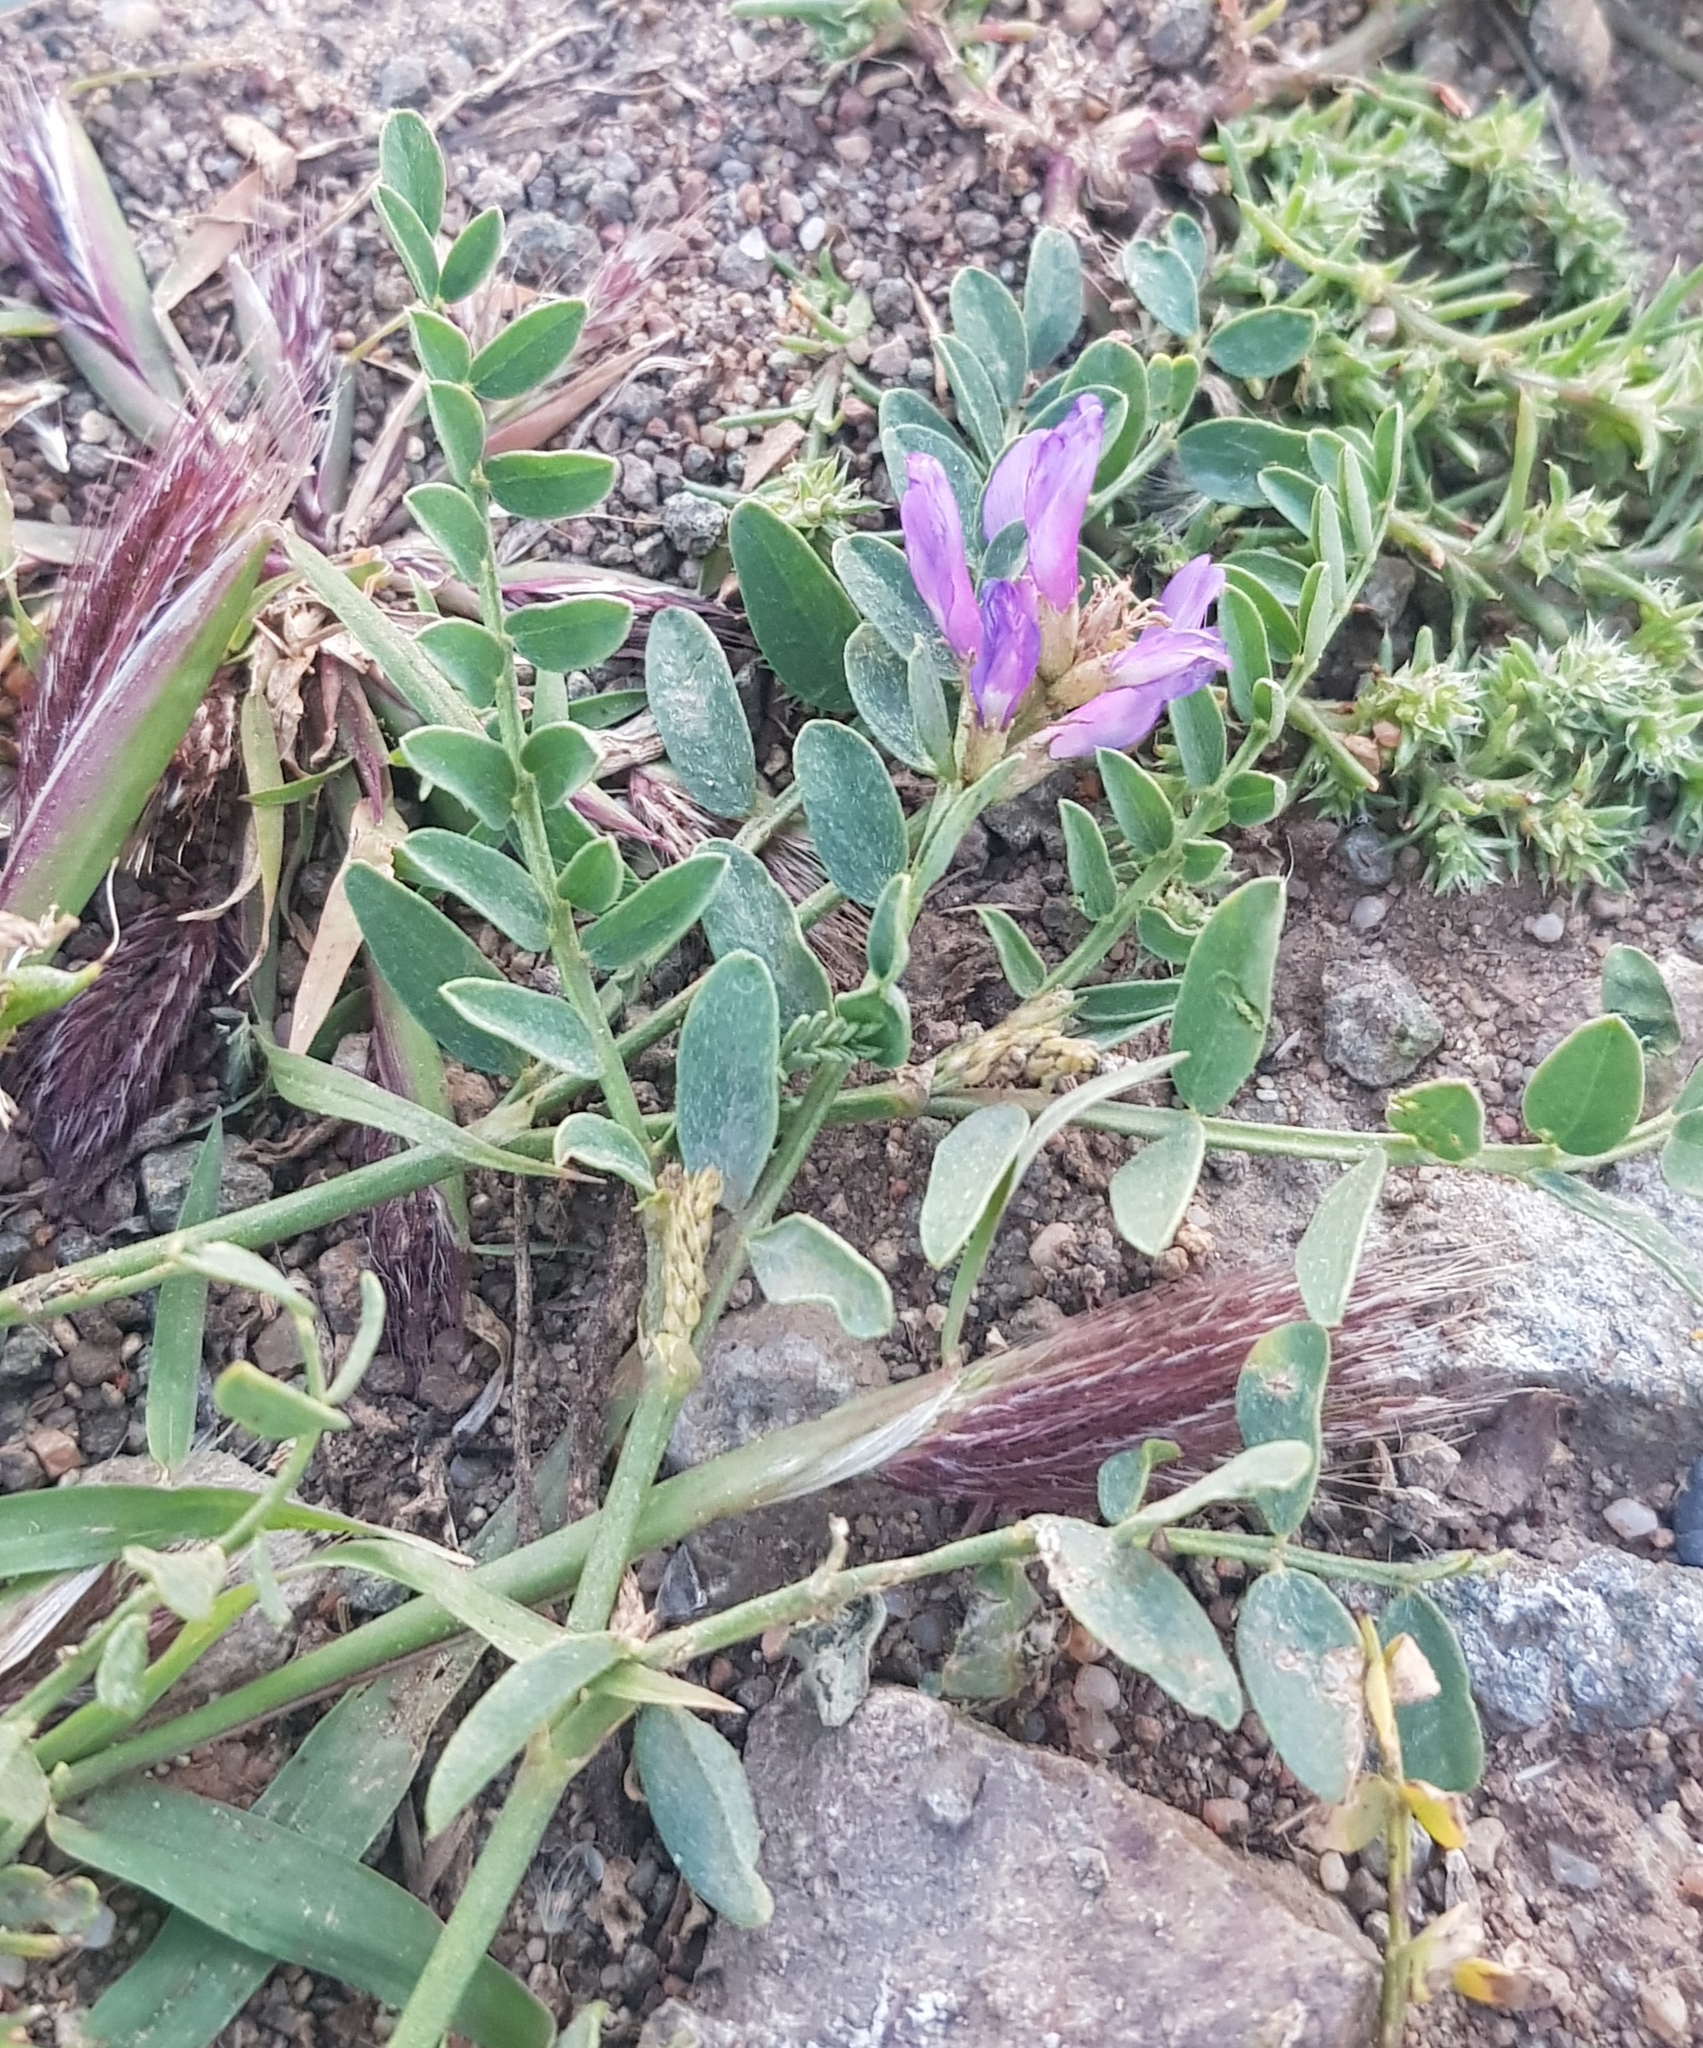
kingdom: Plantae
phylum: Tracheophyta
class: Magnoliopsida
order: Fabales
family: Fabaceae
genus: Astragalus
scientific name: Astragalus laxmannii
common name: Laxmann's milk-vetch
